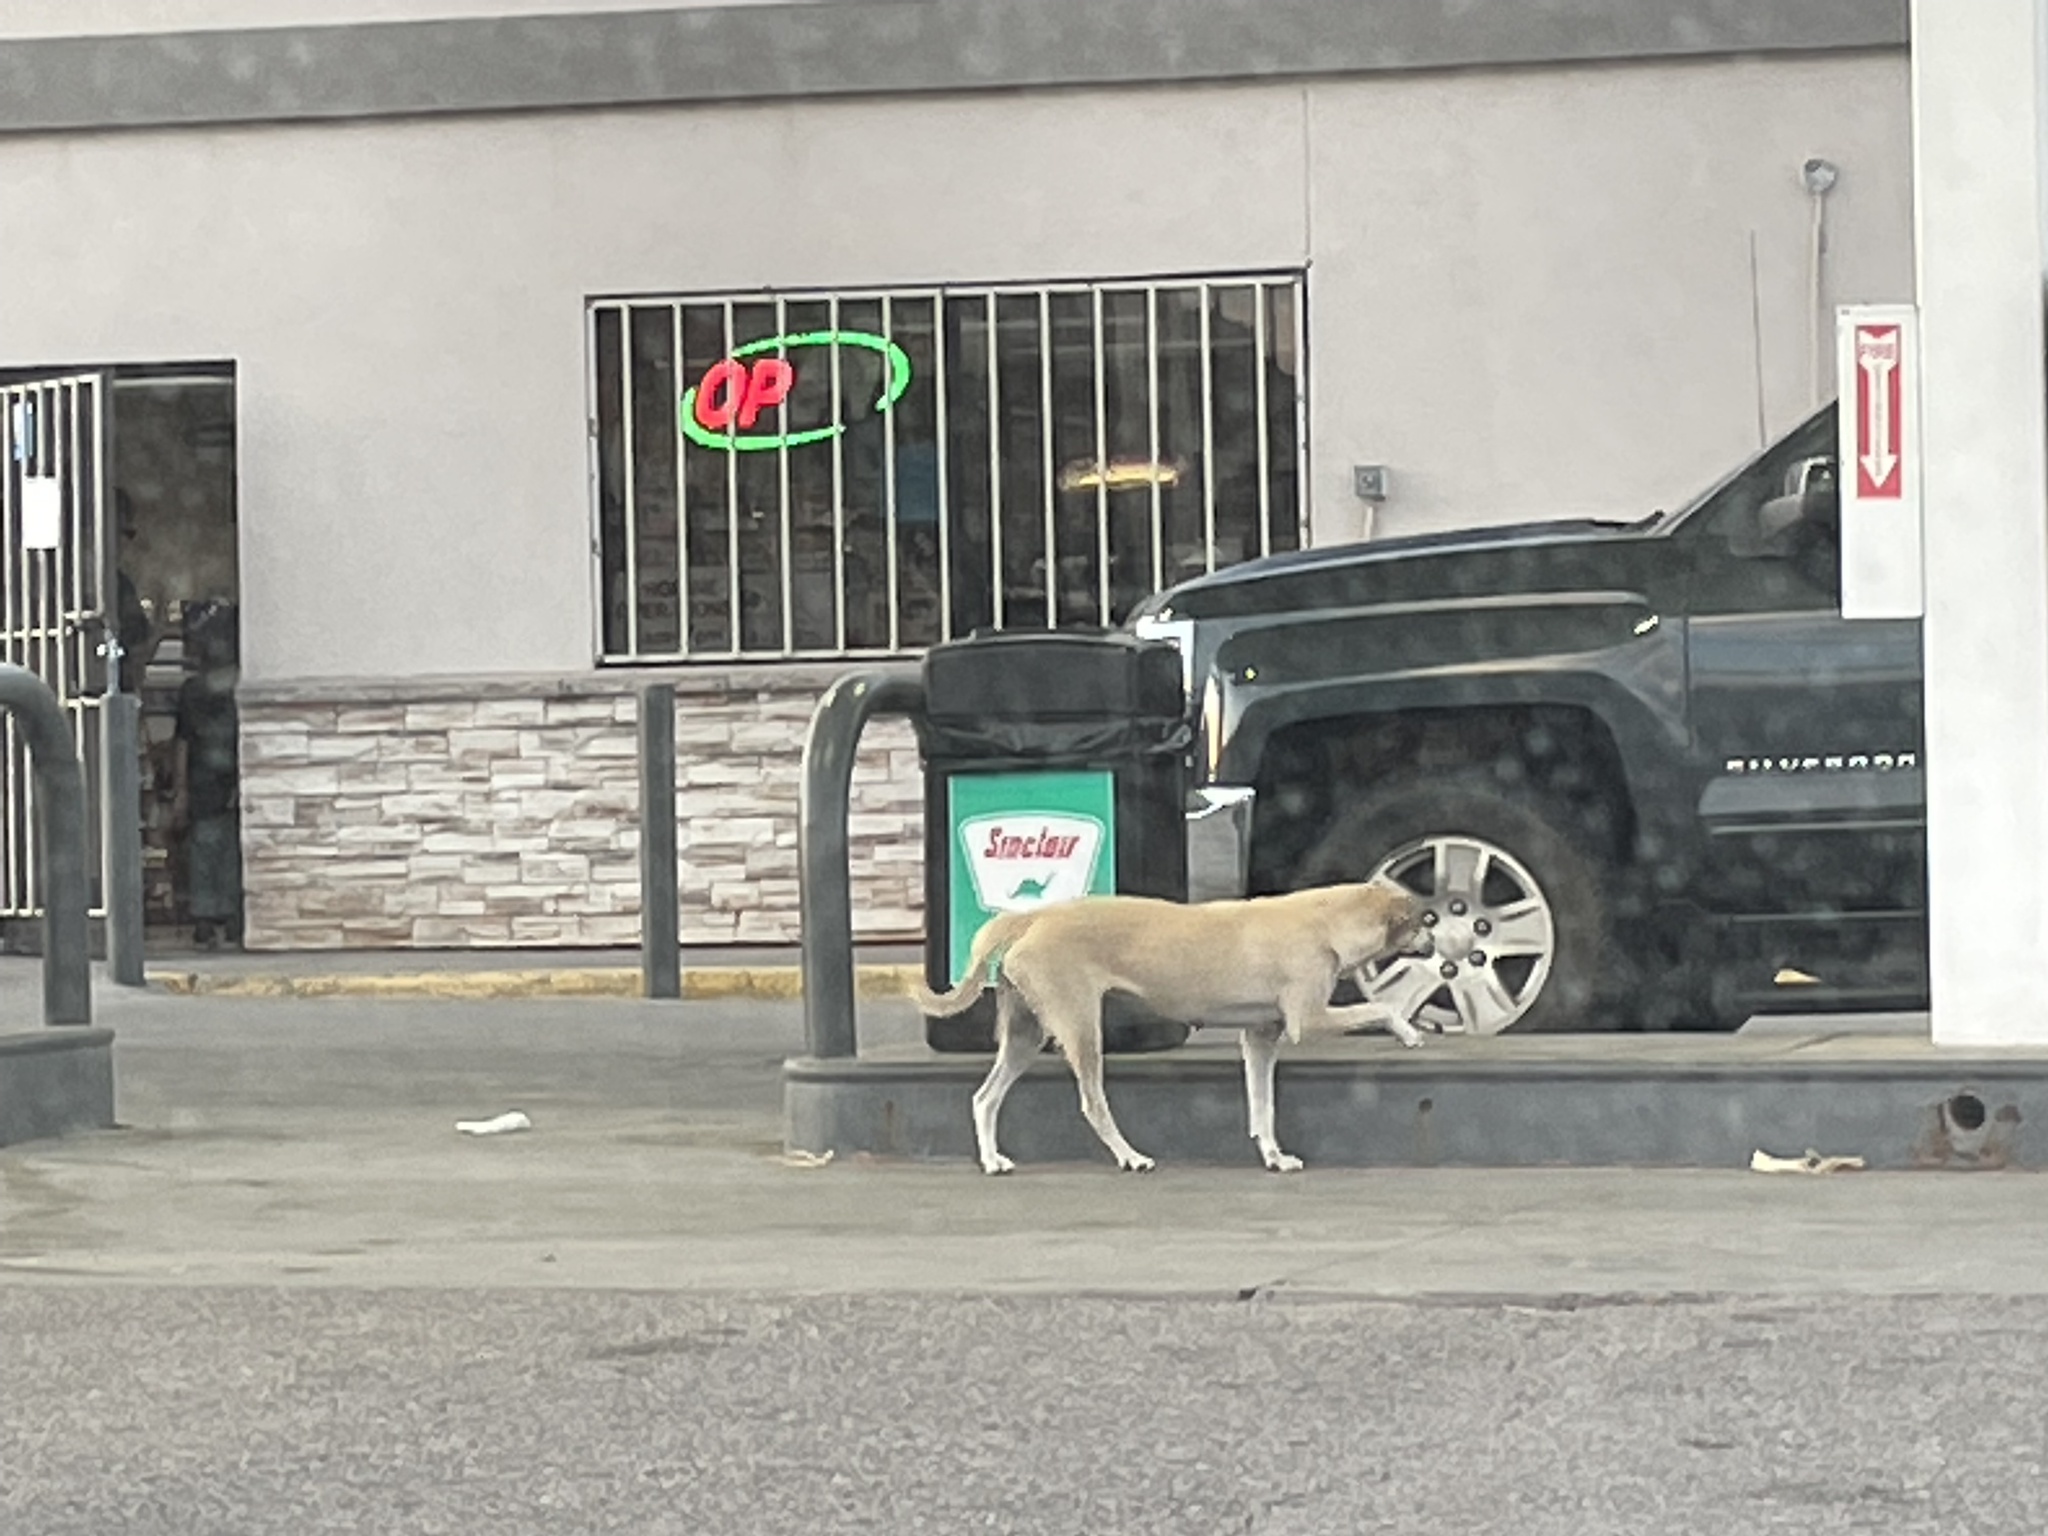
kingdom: Animalia
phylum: Chordata
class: Mammalia
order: Carnivora
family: Canidae
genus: Canis
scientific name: Canis lupus
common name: Gray wolf
